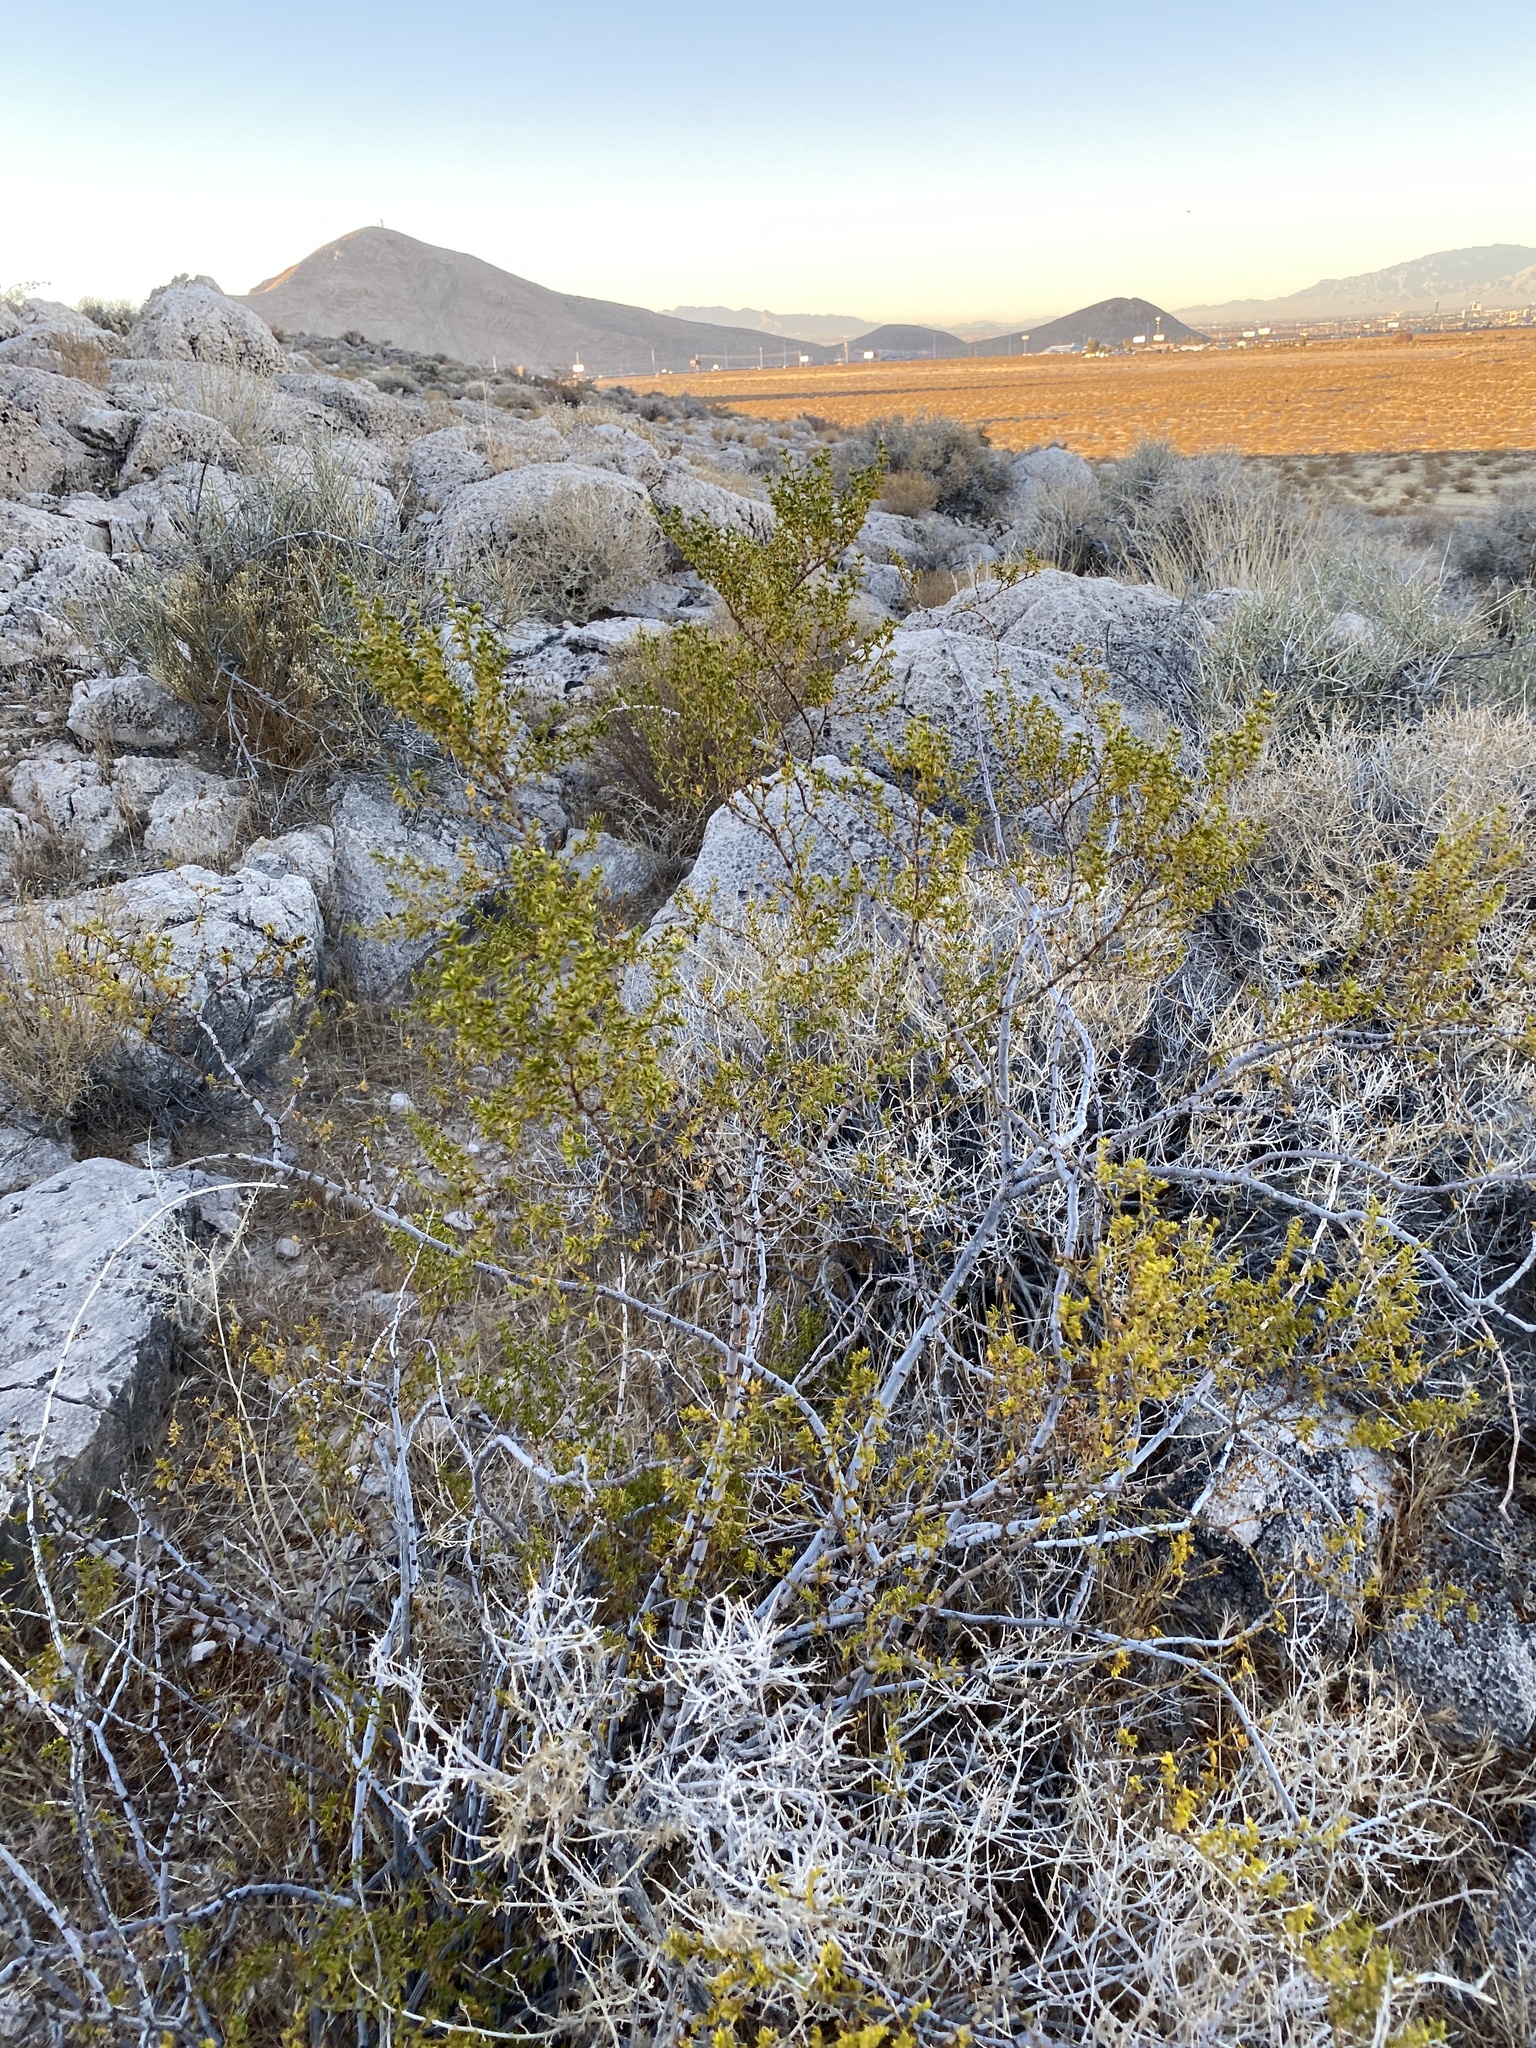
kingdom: Plantae
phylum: Tracheophyta
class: Magnoliopsida
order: Zygophyllales
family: Zygophyllaceae
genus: Larrea
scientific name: Larrea tridentata
